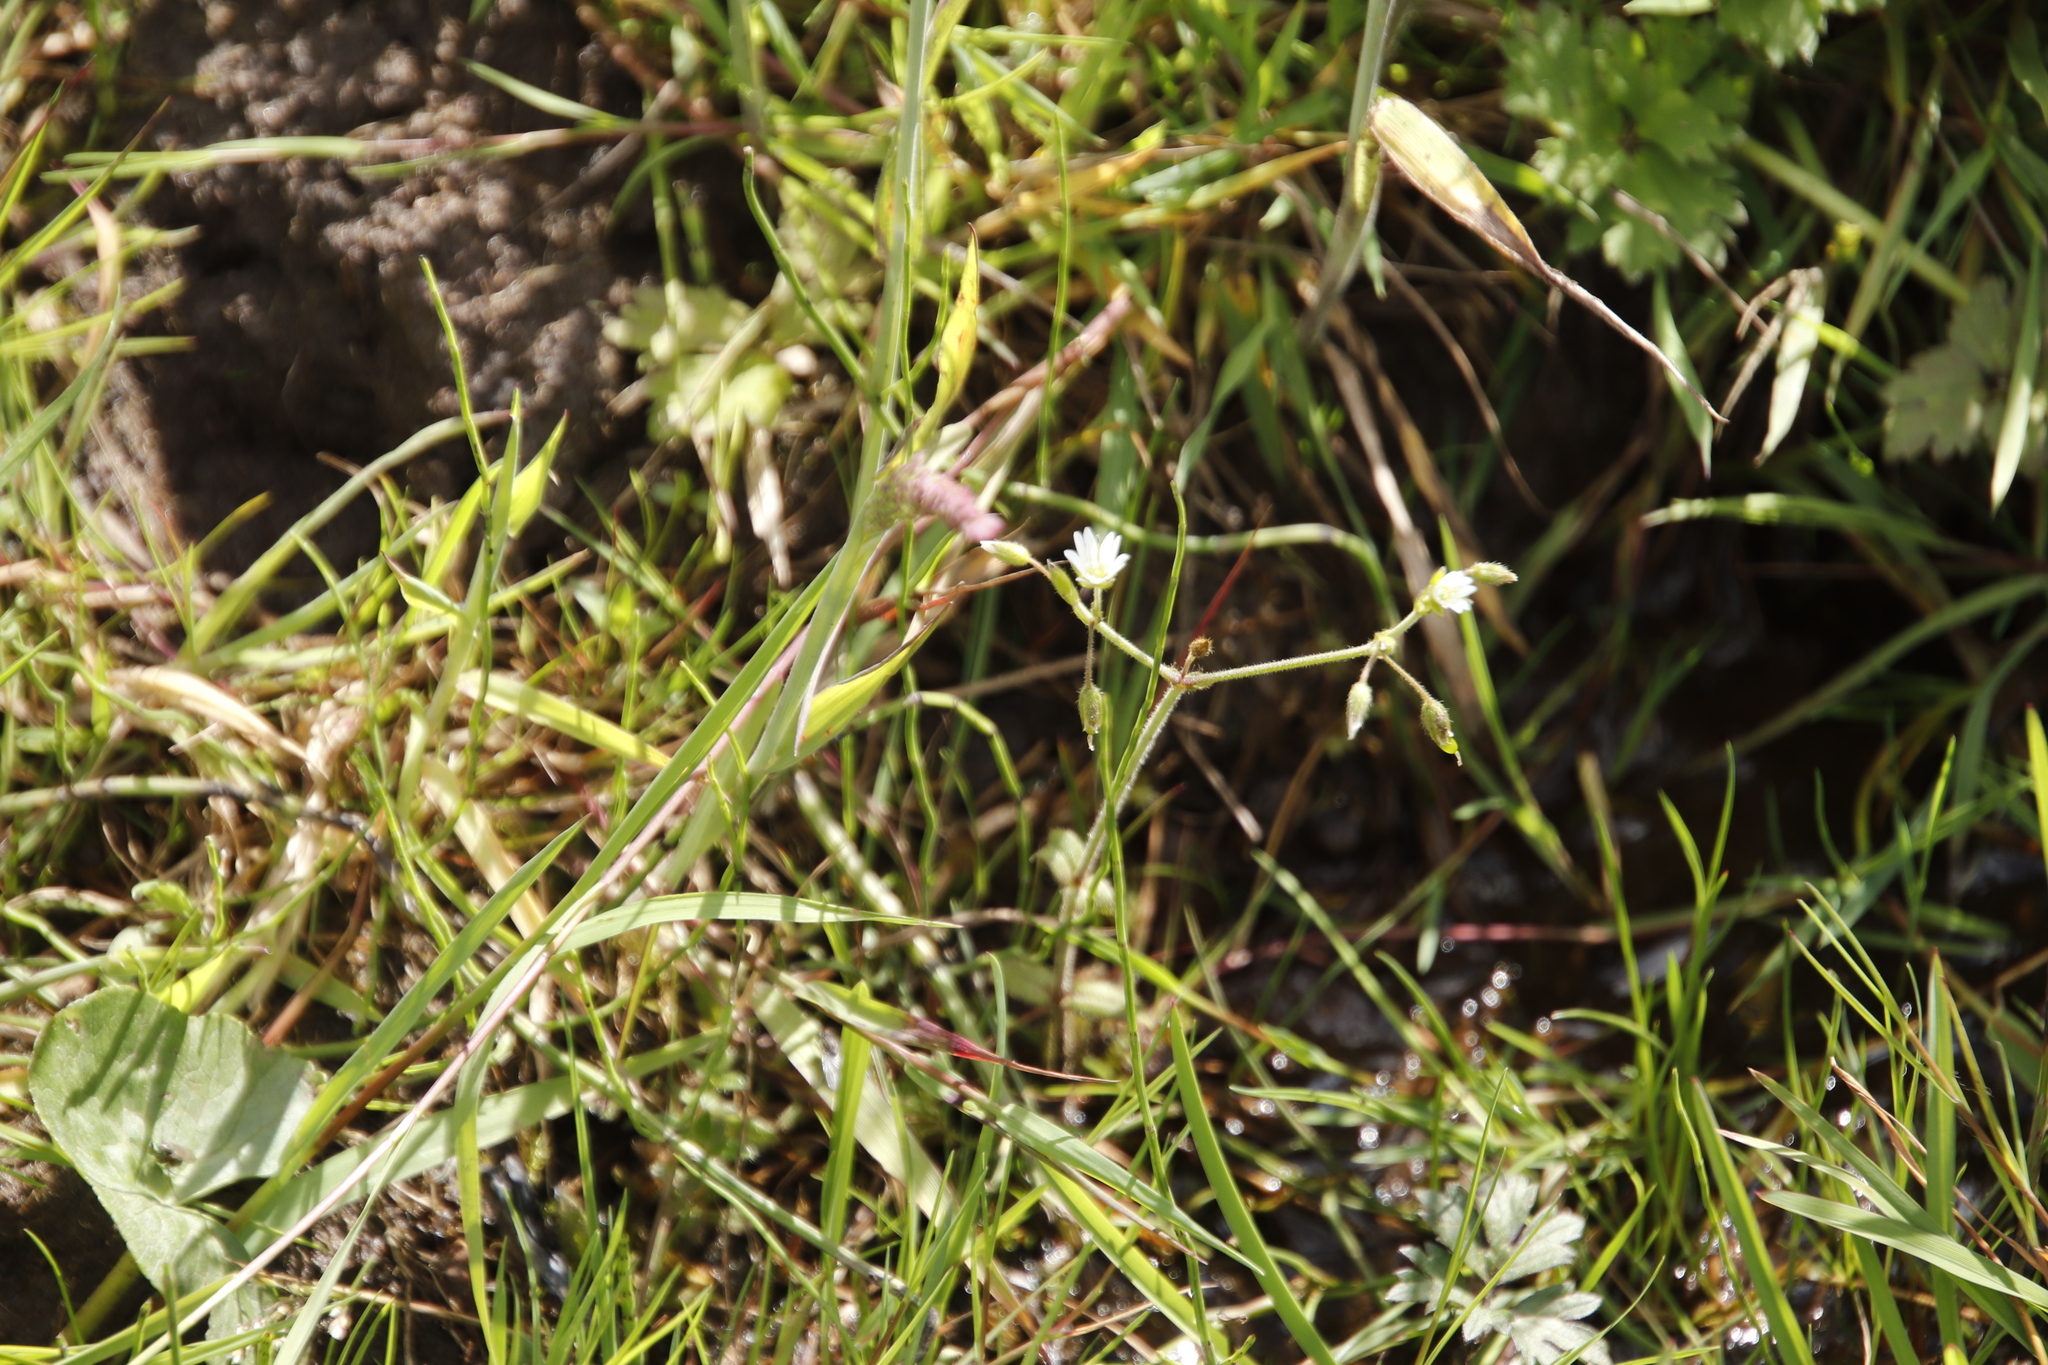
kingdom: Plantae
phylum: Tracheophyta
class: Magnoliopsida
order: Caryophyllales
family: Caryophyllaceae
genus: Cerastium
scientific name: Cerastium fontanum
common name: Common mouse-ear
